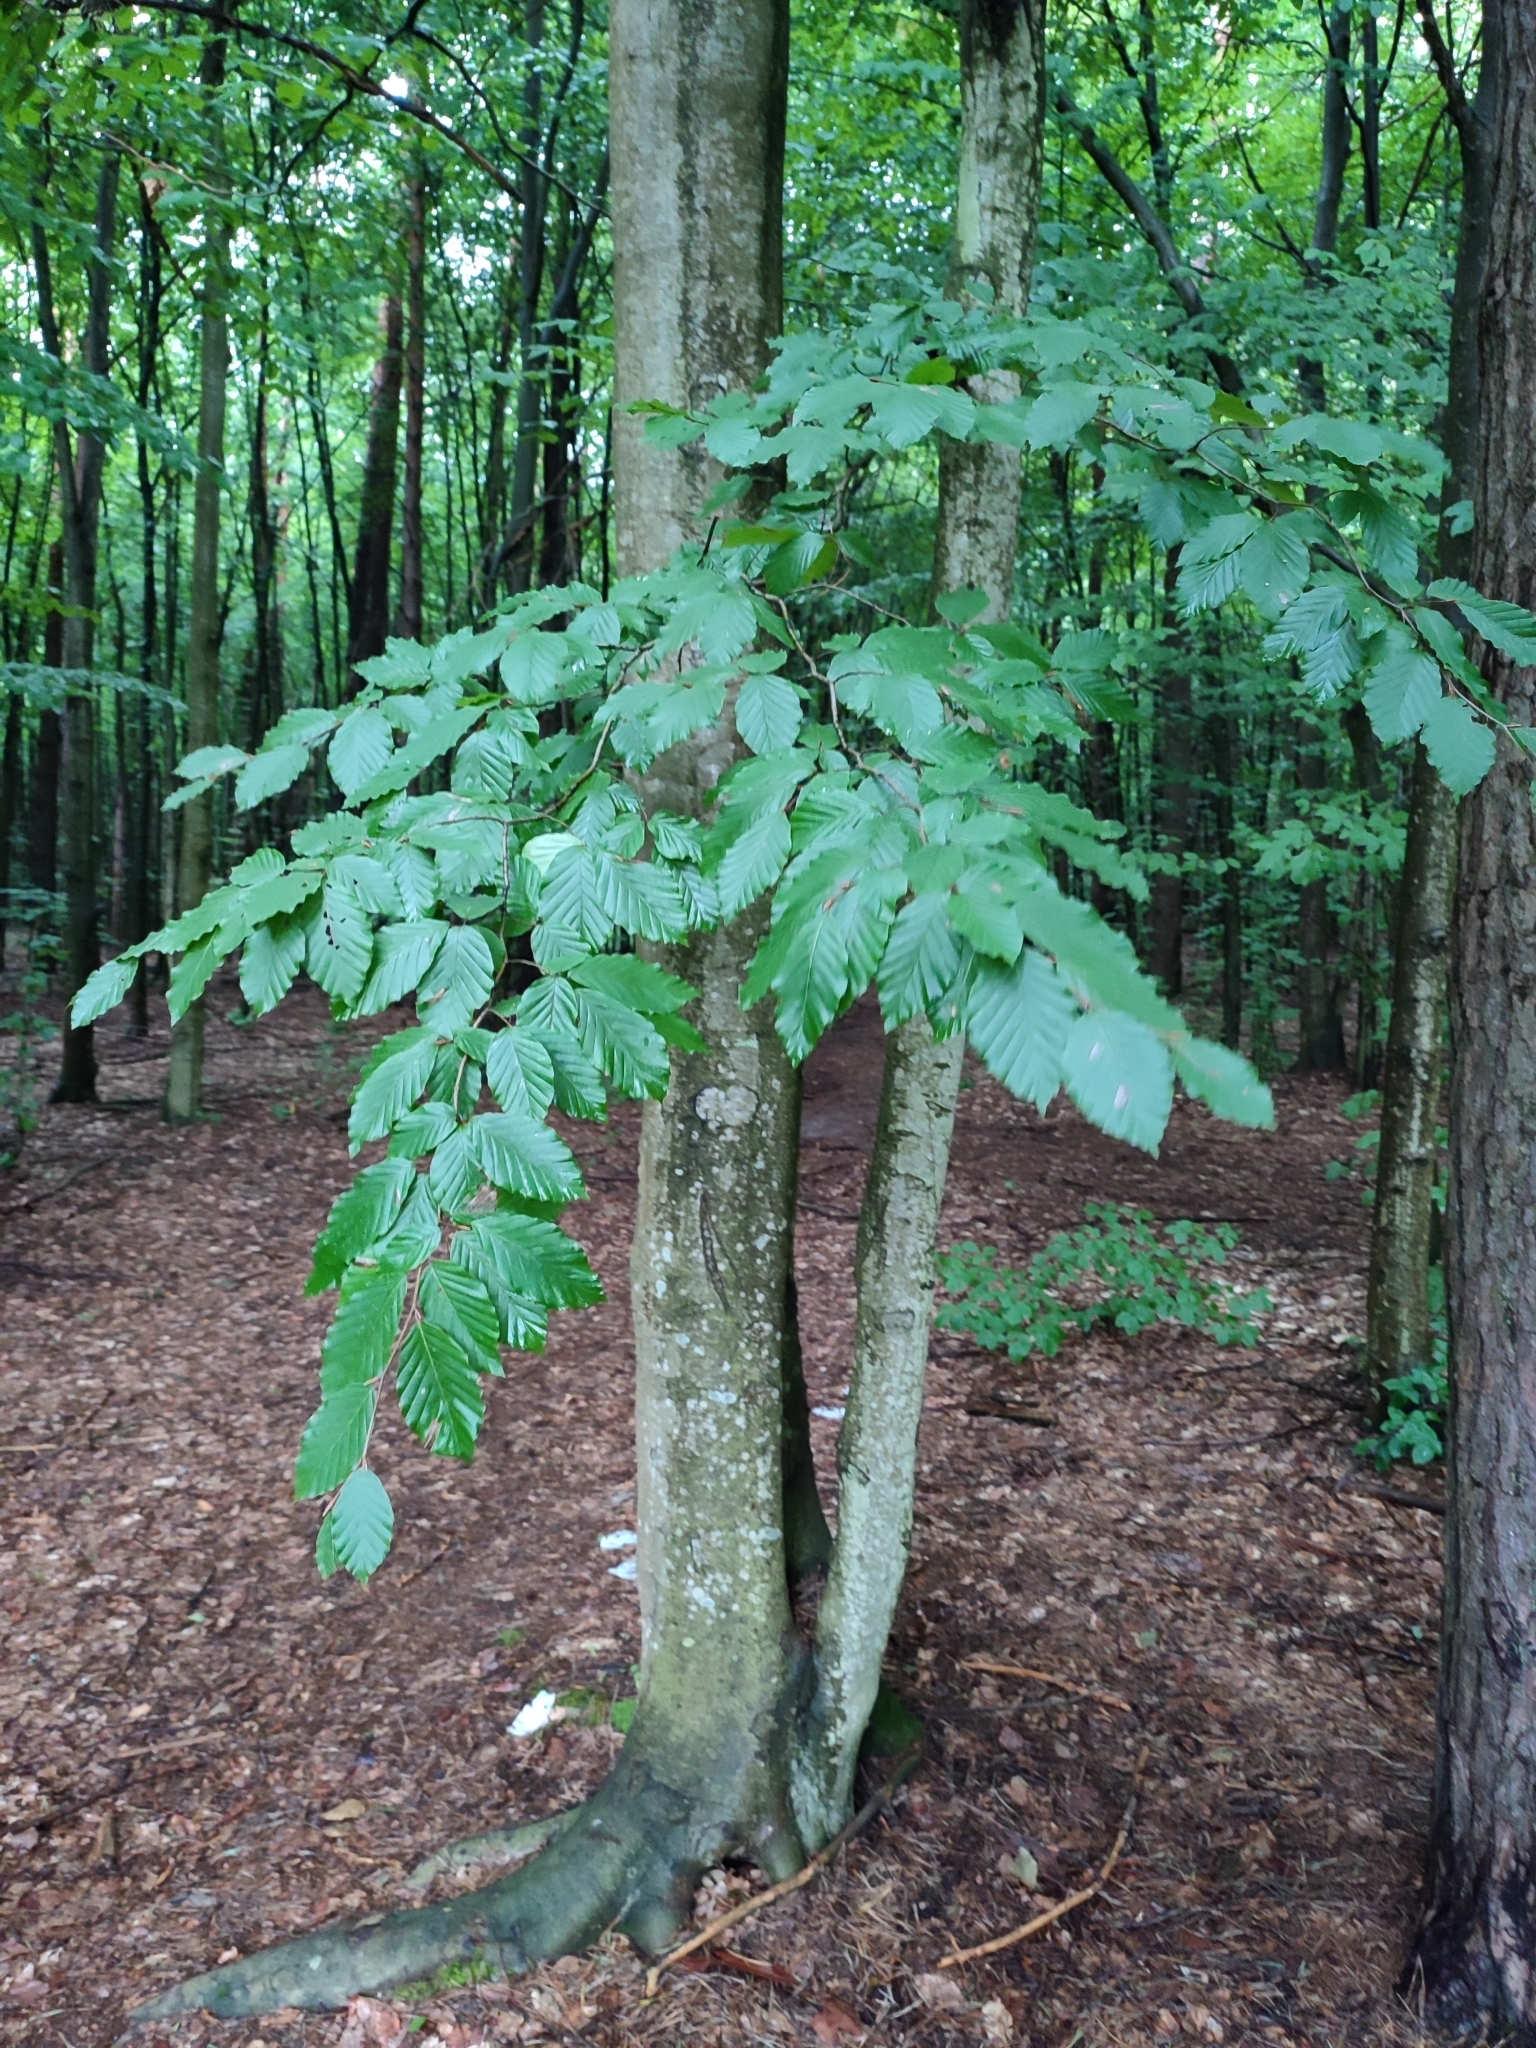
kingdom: Plantae
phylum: Tracheophyta
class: Magnoliopsida
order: Fagales
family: Fagaceae
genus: Fagus
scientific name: Fagus sylvatica
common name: Beech
